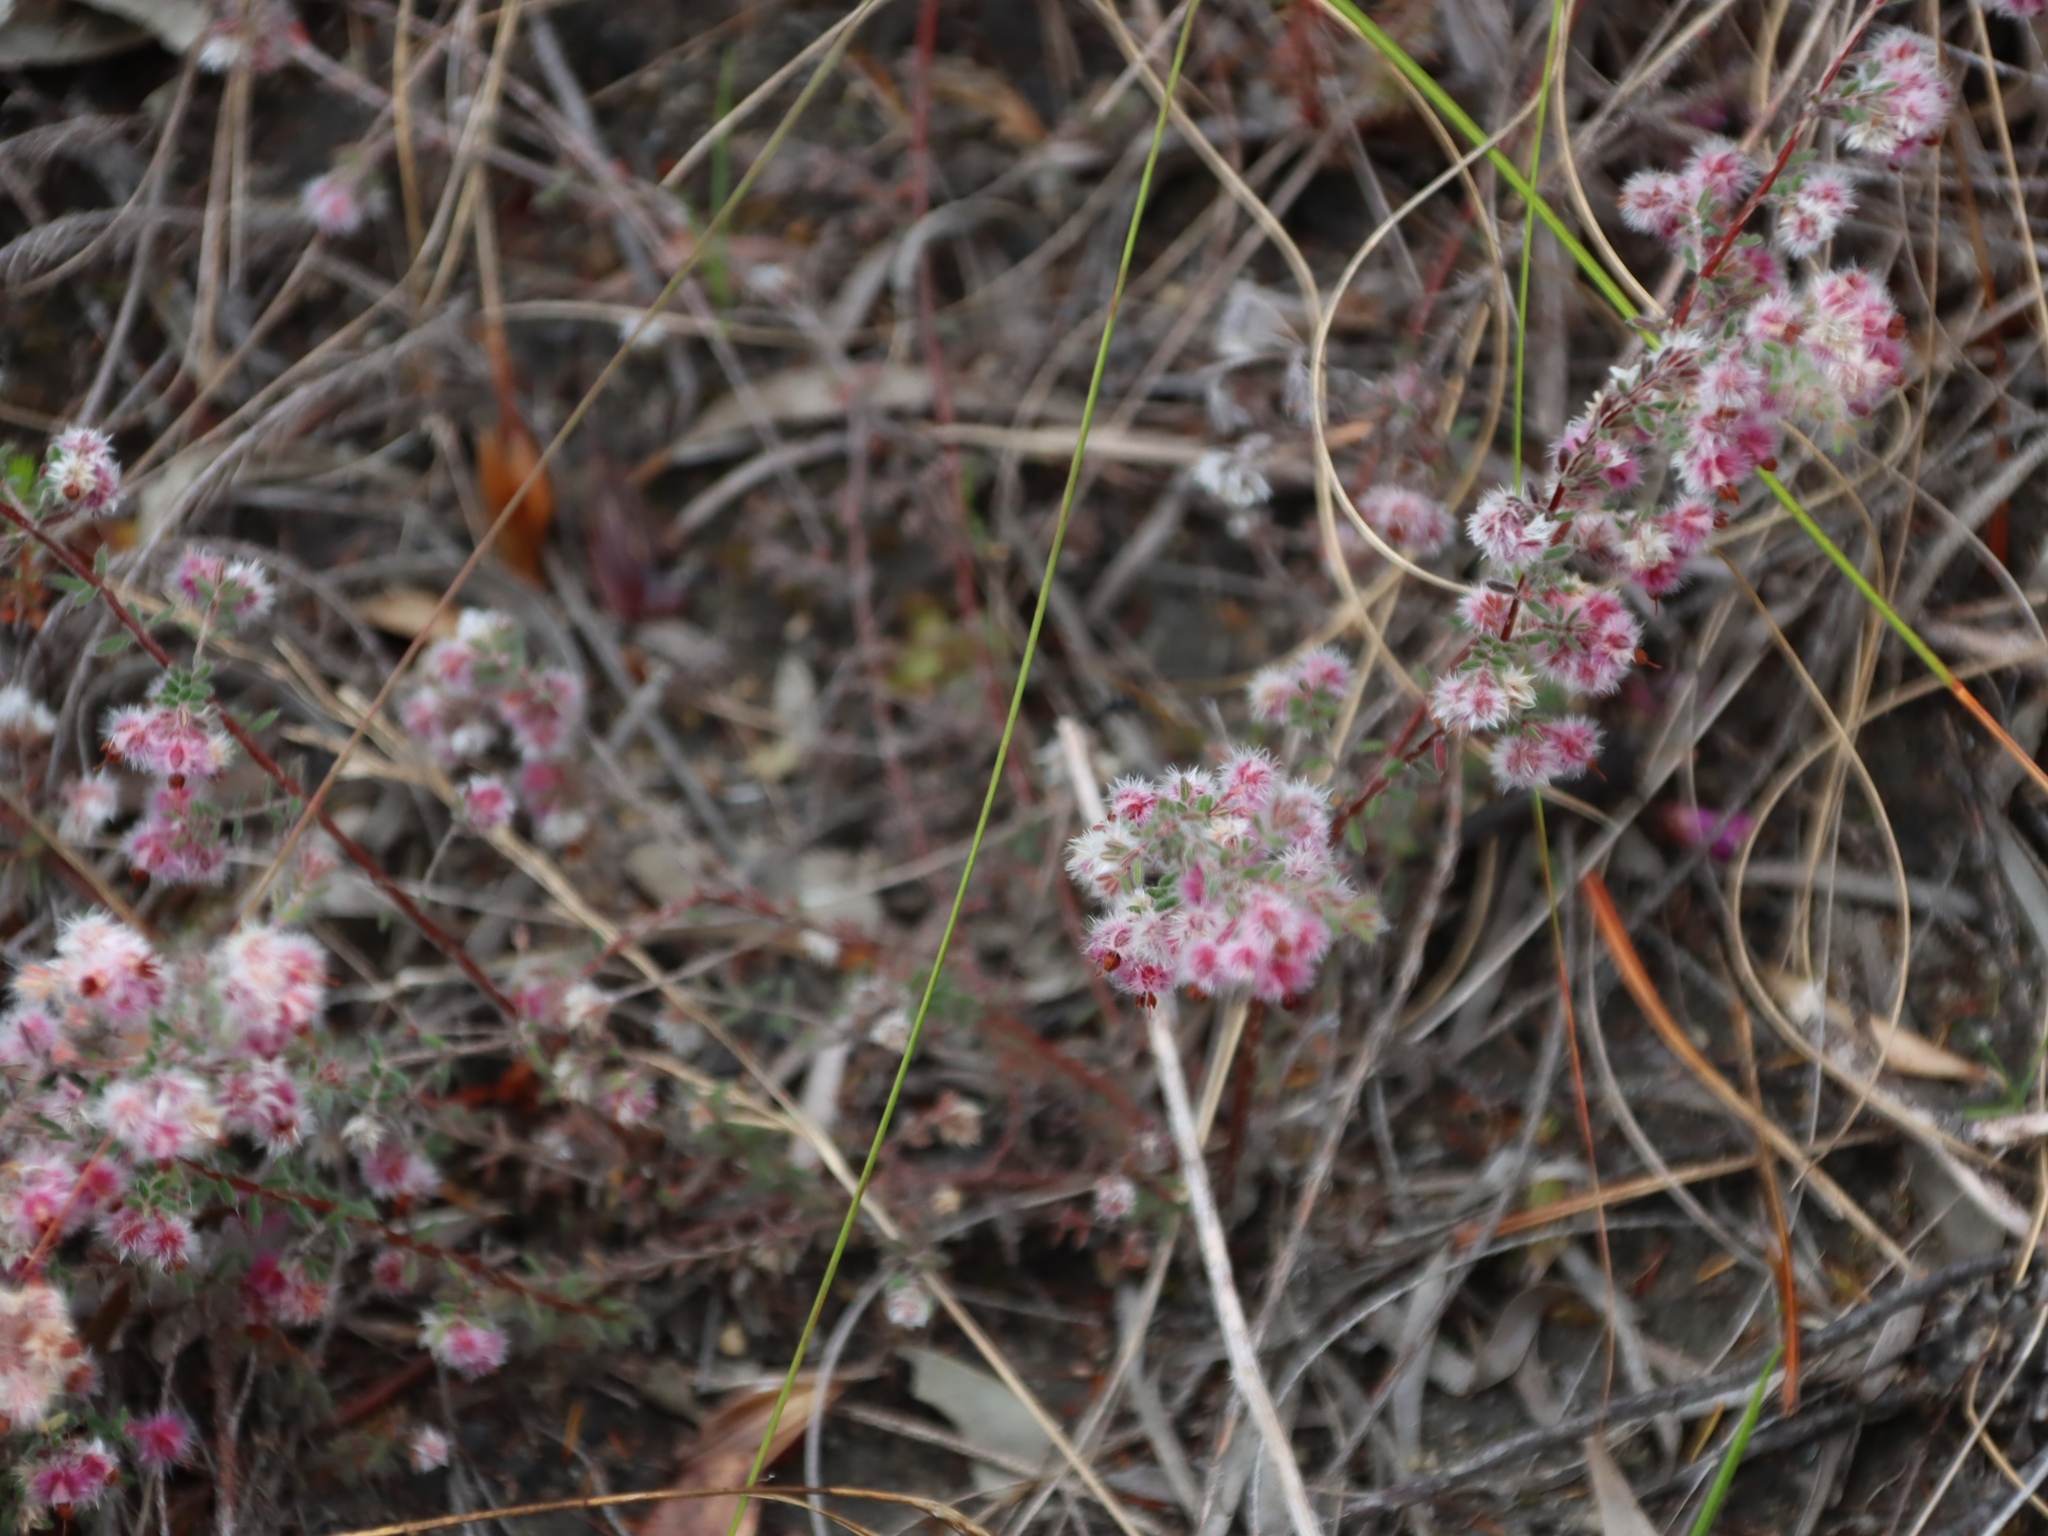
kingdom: Plantae
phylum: Tracheophyta
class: Magnoliopsida
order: Ericales
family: Ericaceae
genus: Erica
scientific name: Erica bruniades
